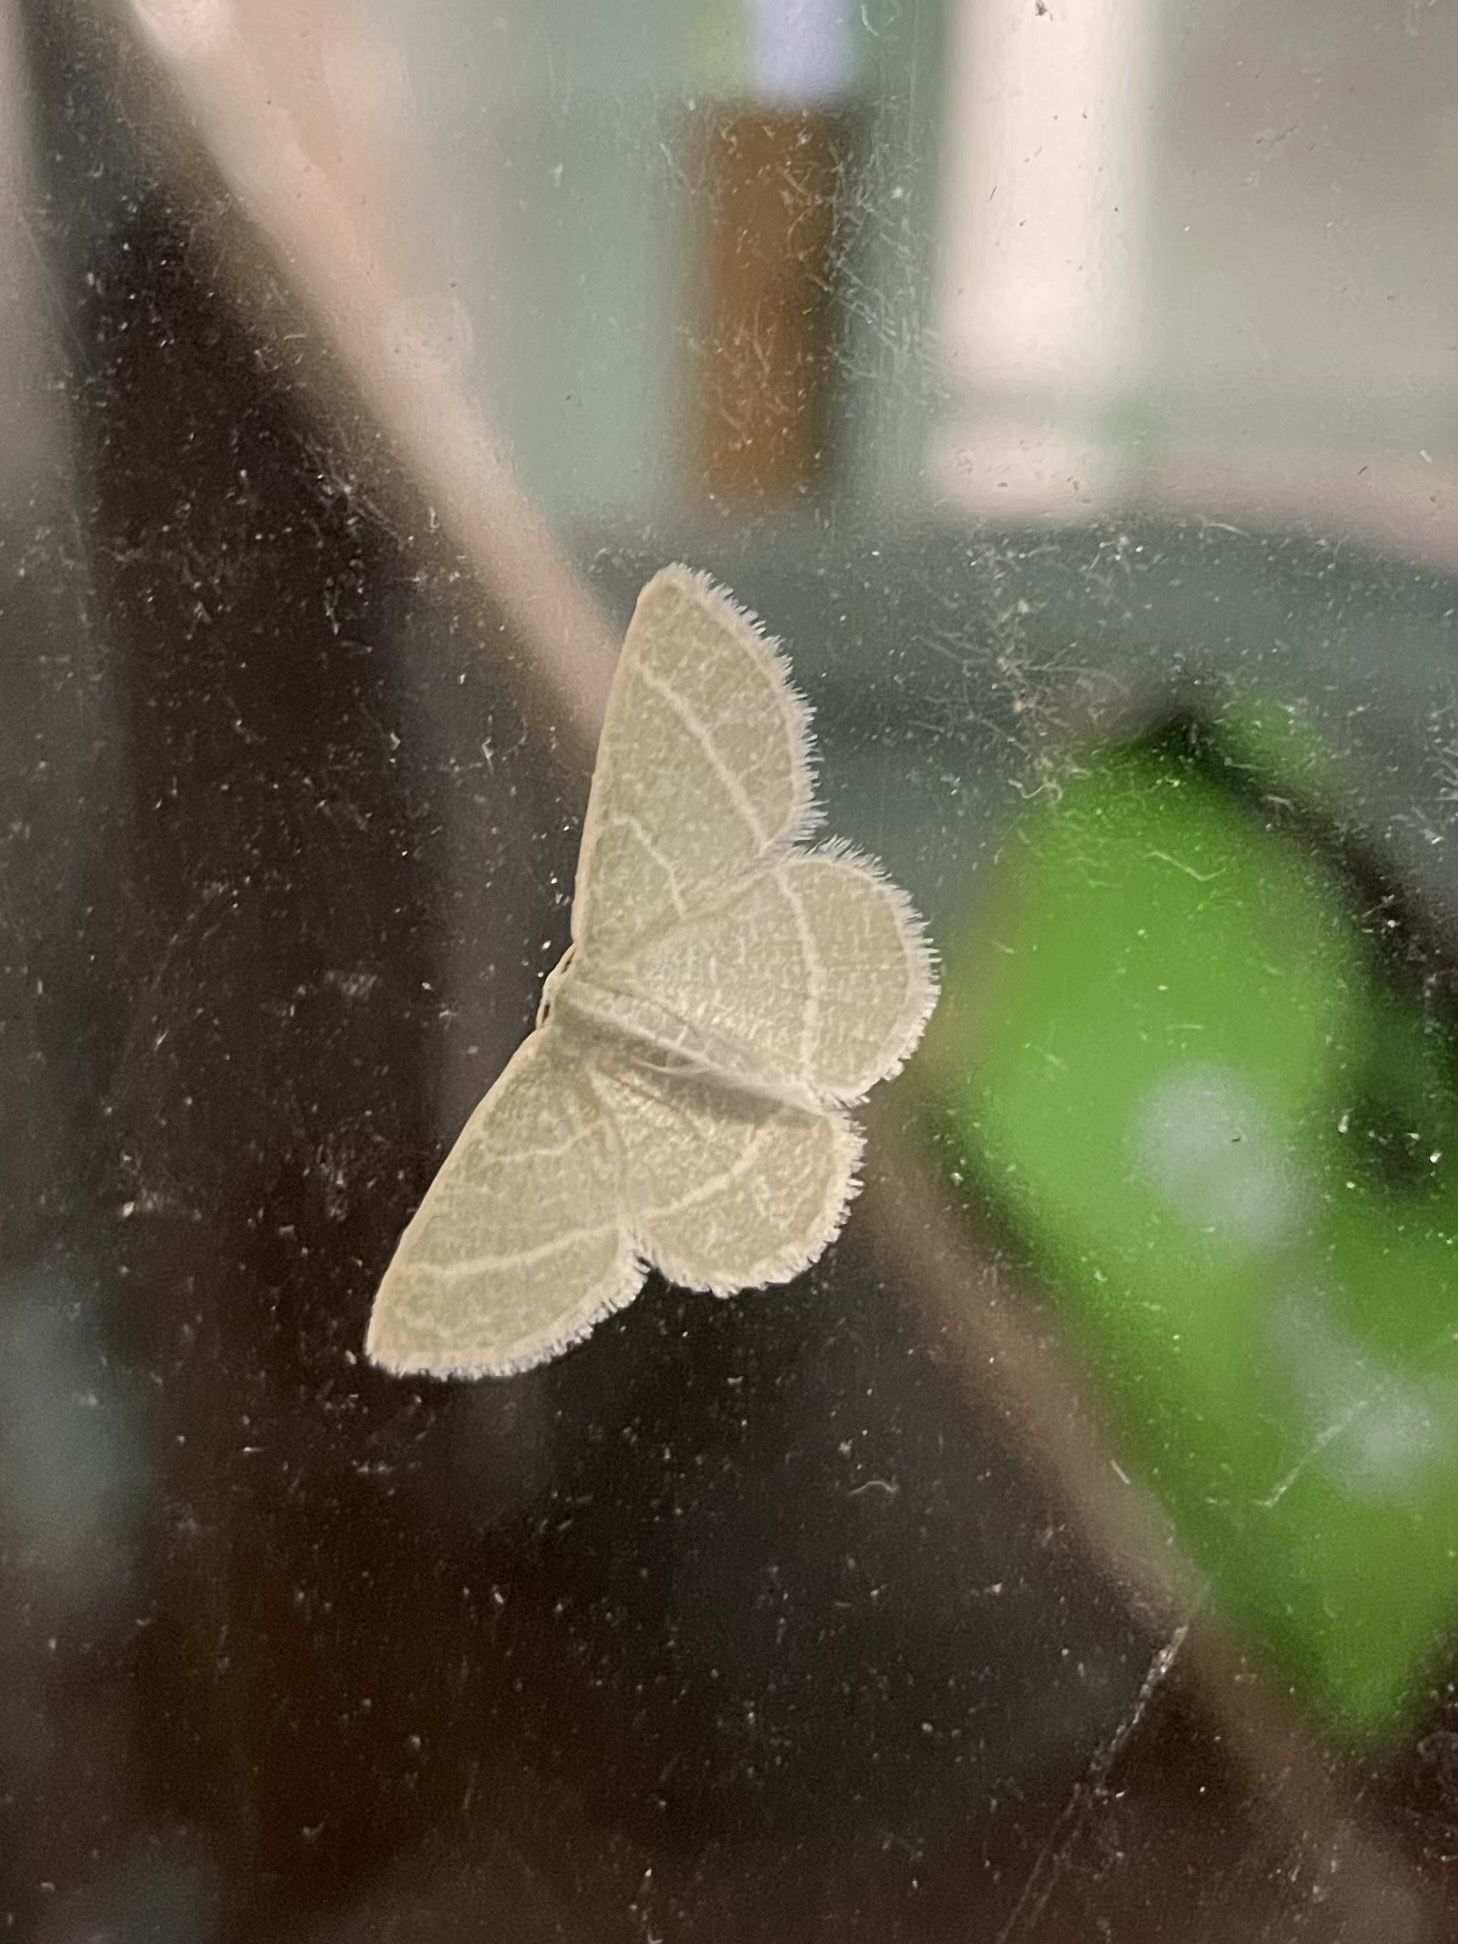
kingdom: Animalia
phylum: Arthropoda
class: Insecta
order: Lepidoptera
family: Geometridae
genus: Chlorochlamys
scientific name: Chlorochlamys chloroleucaria
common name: Blackberry looper
